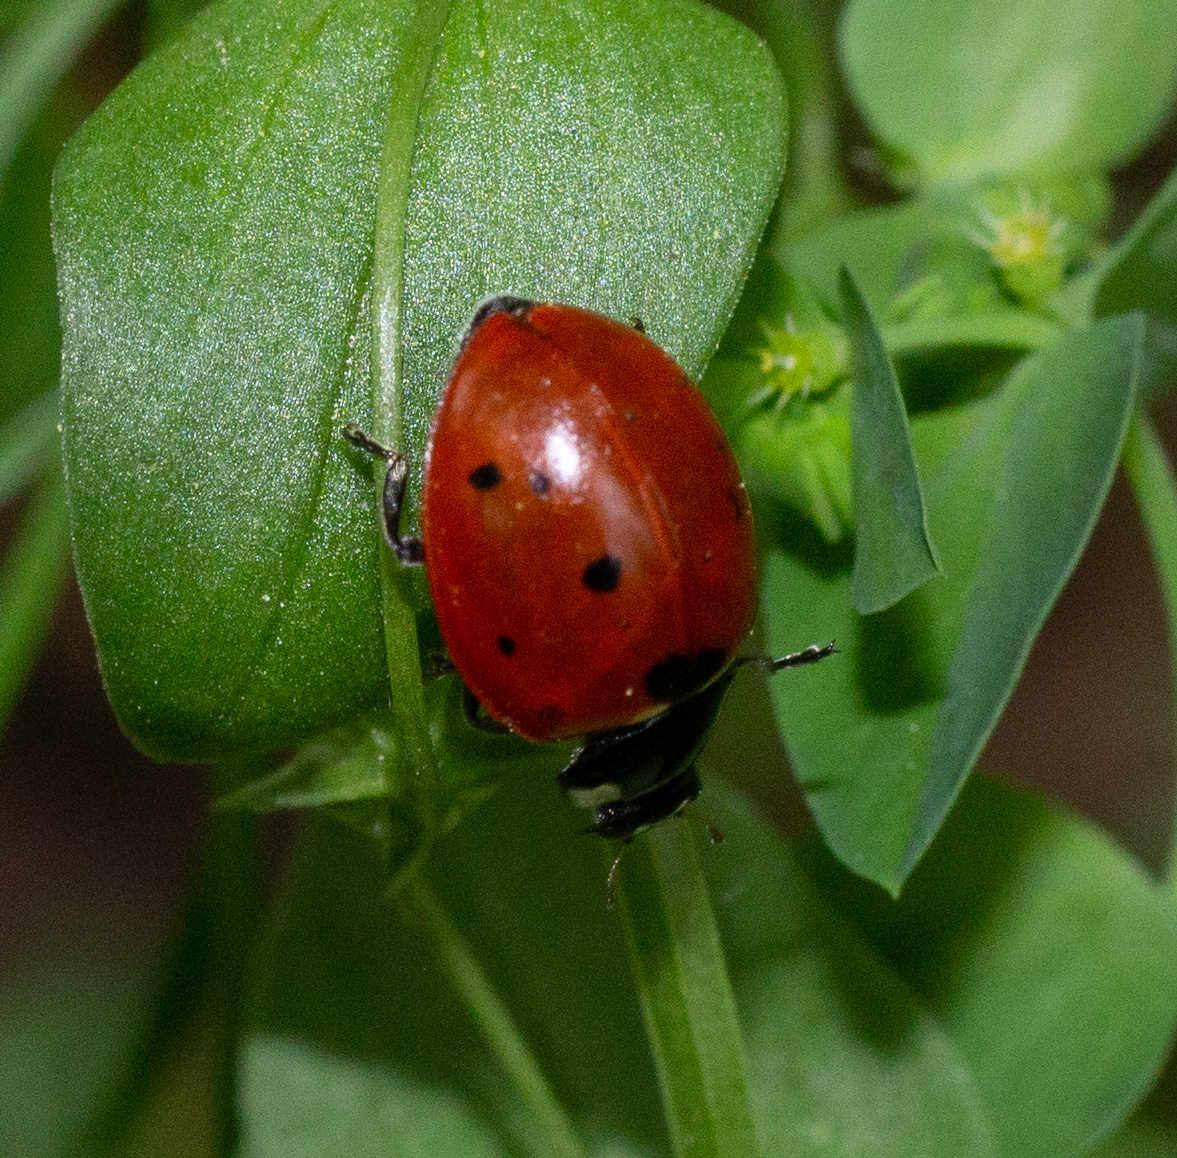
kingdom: Animalia
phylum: Arthropoda
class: Insecta
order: Coleoptera
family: Coccinellidae
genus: Coccinella
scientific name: Coccinella septempunctata
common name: Sevenspotted lady beetle
